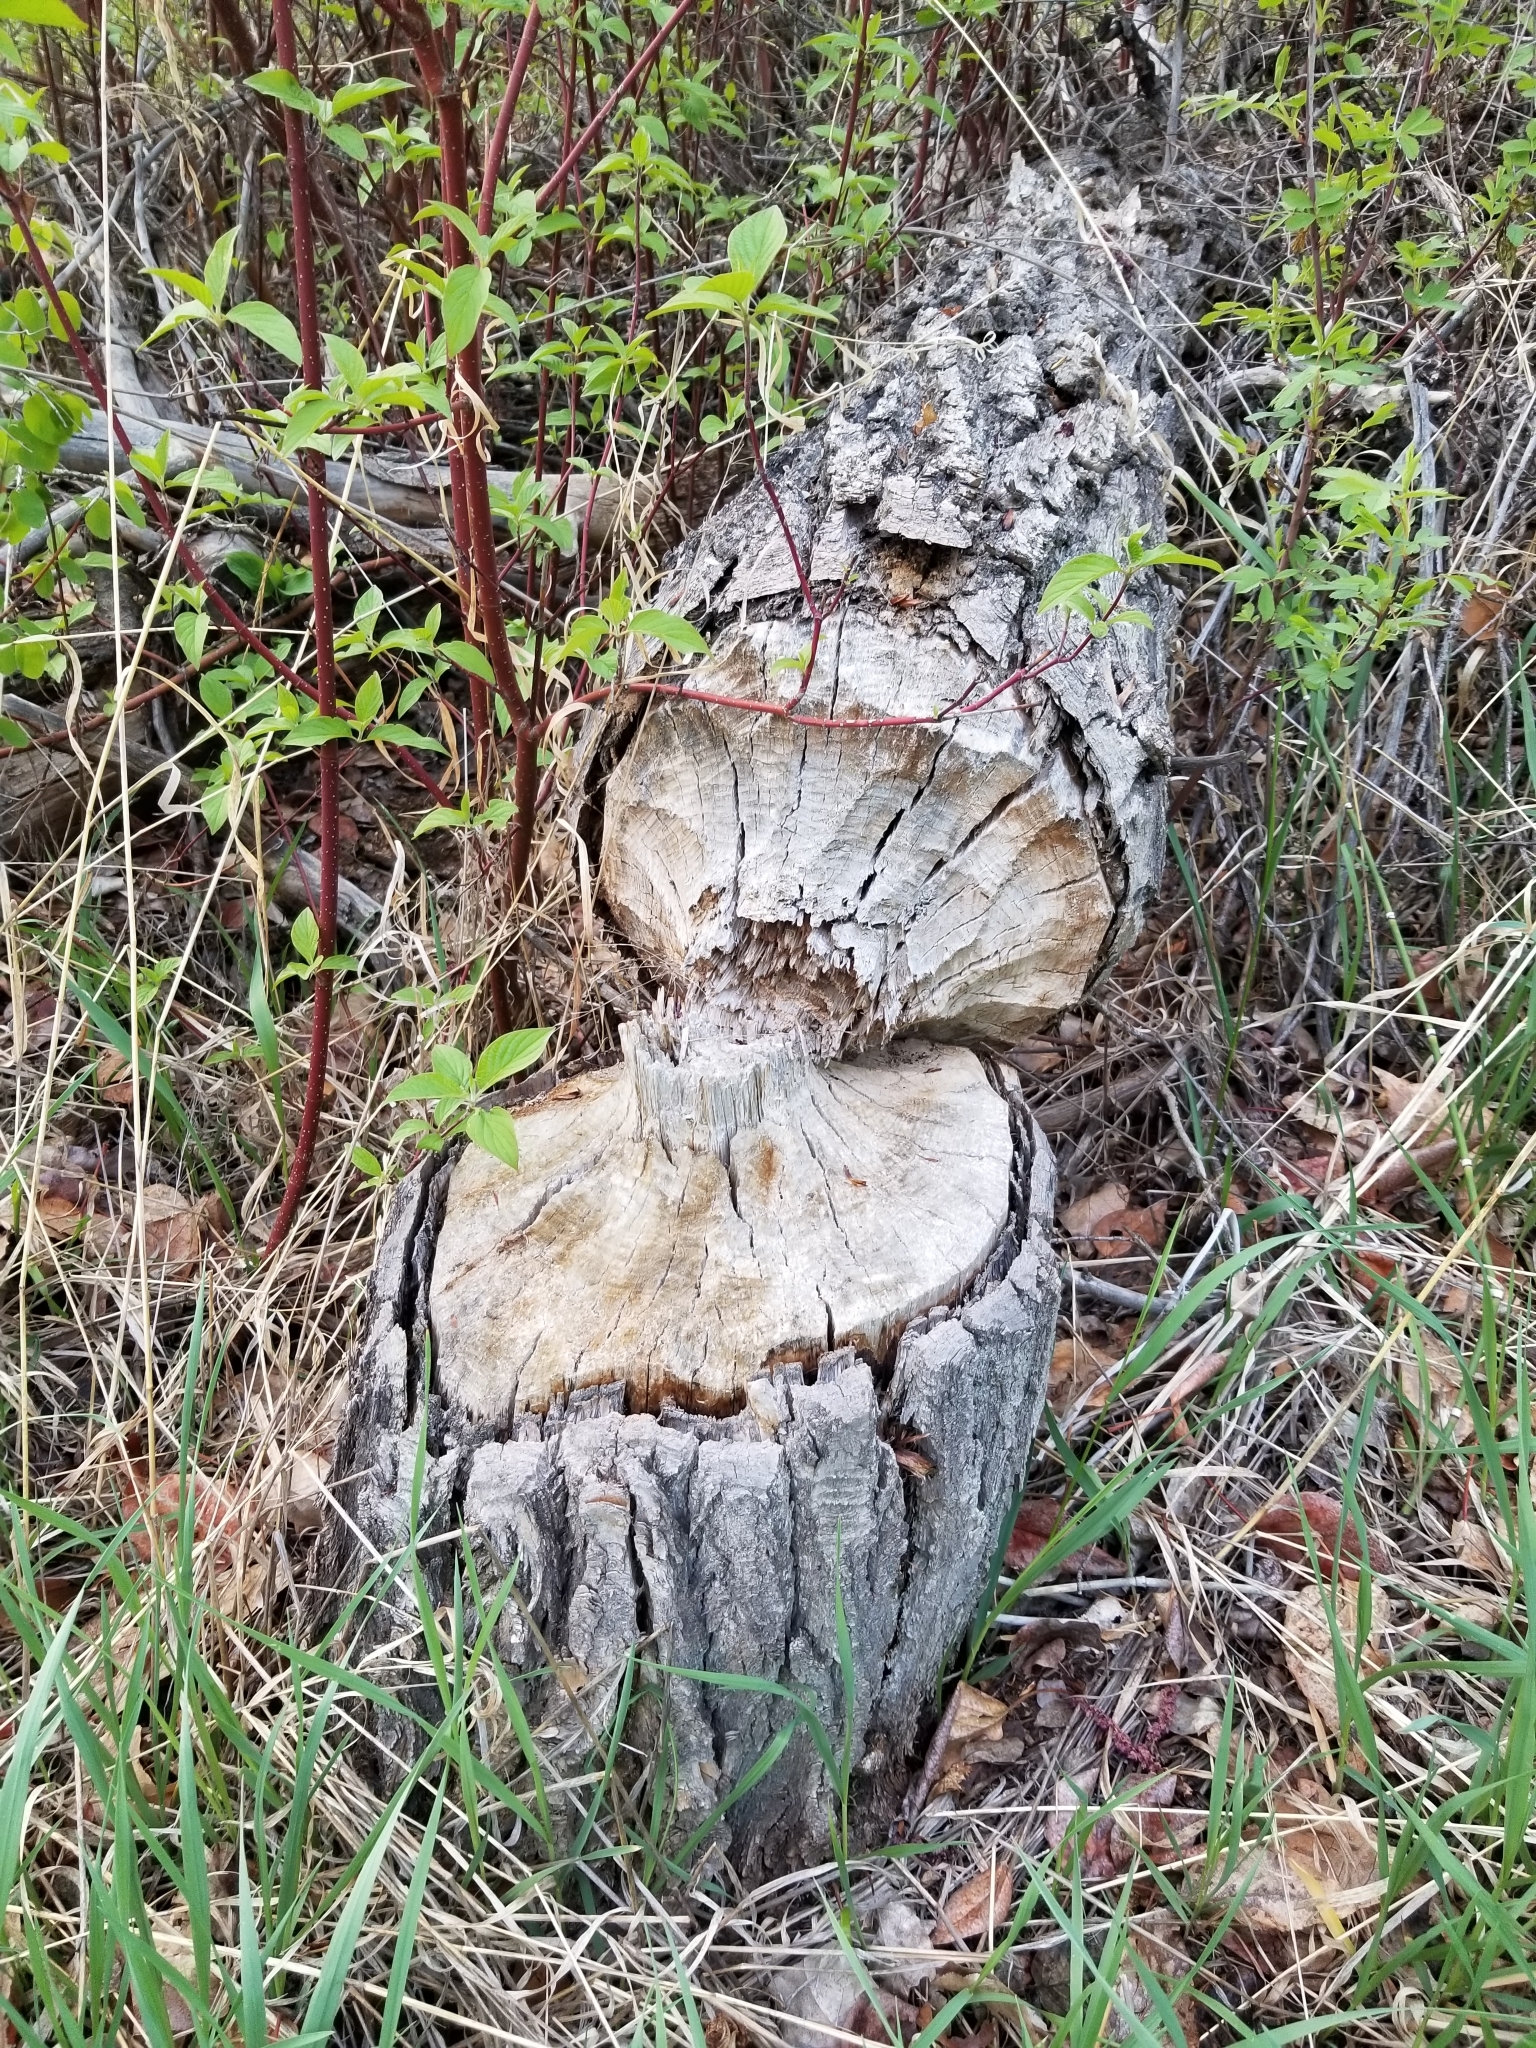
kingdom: Animalia
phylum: Chordata
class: Mammalia
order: Rodentia
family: Castoridae
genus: Castor
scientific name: Castor canadensis
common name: American beaver
